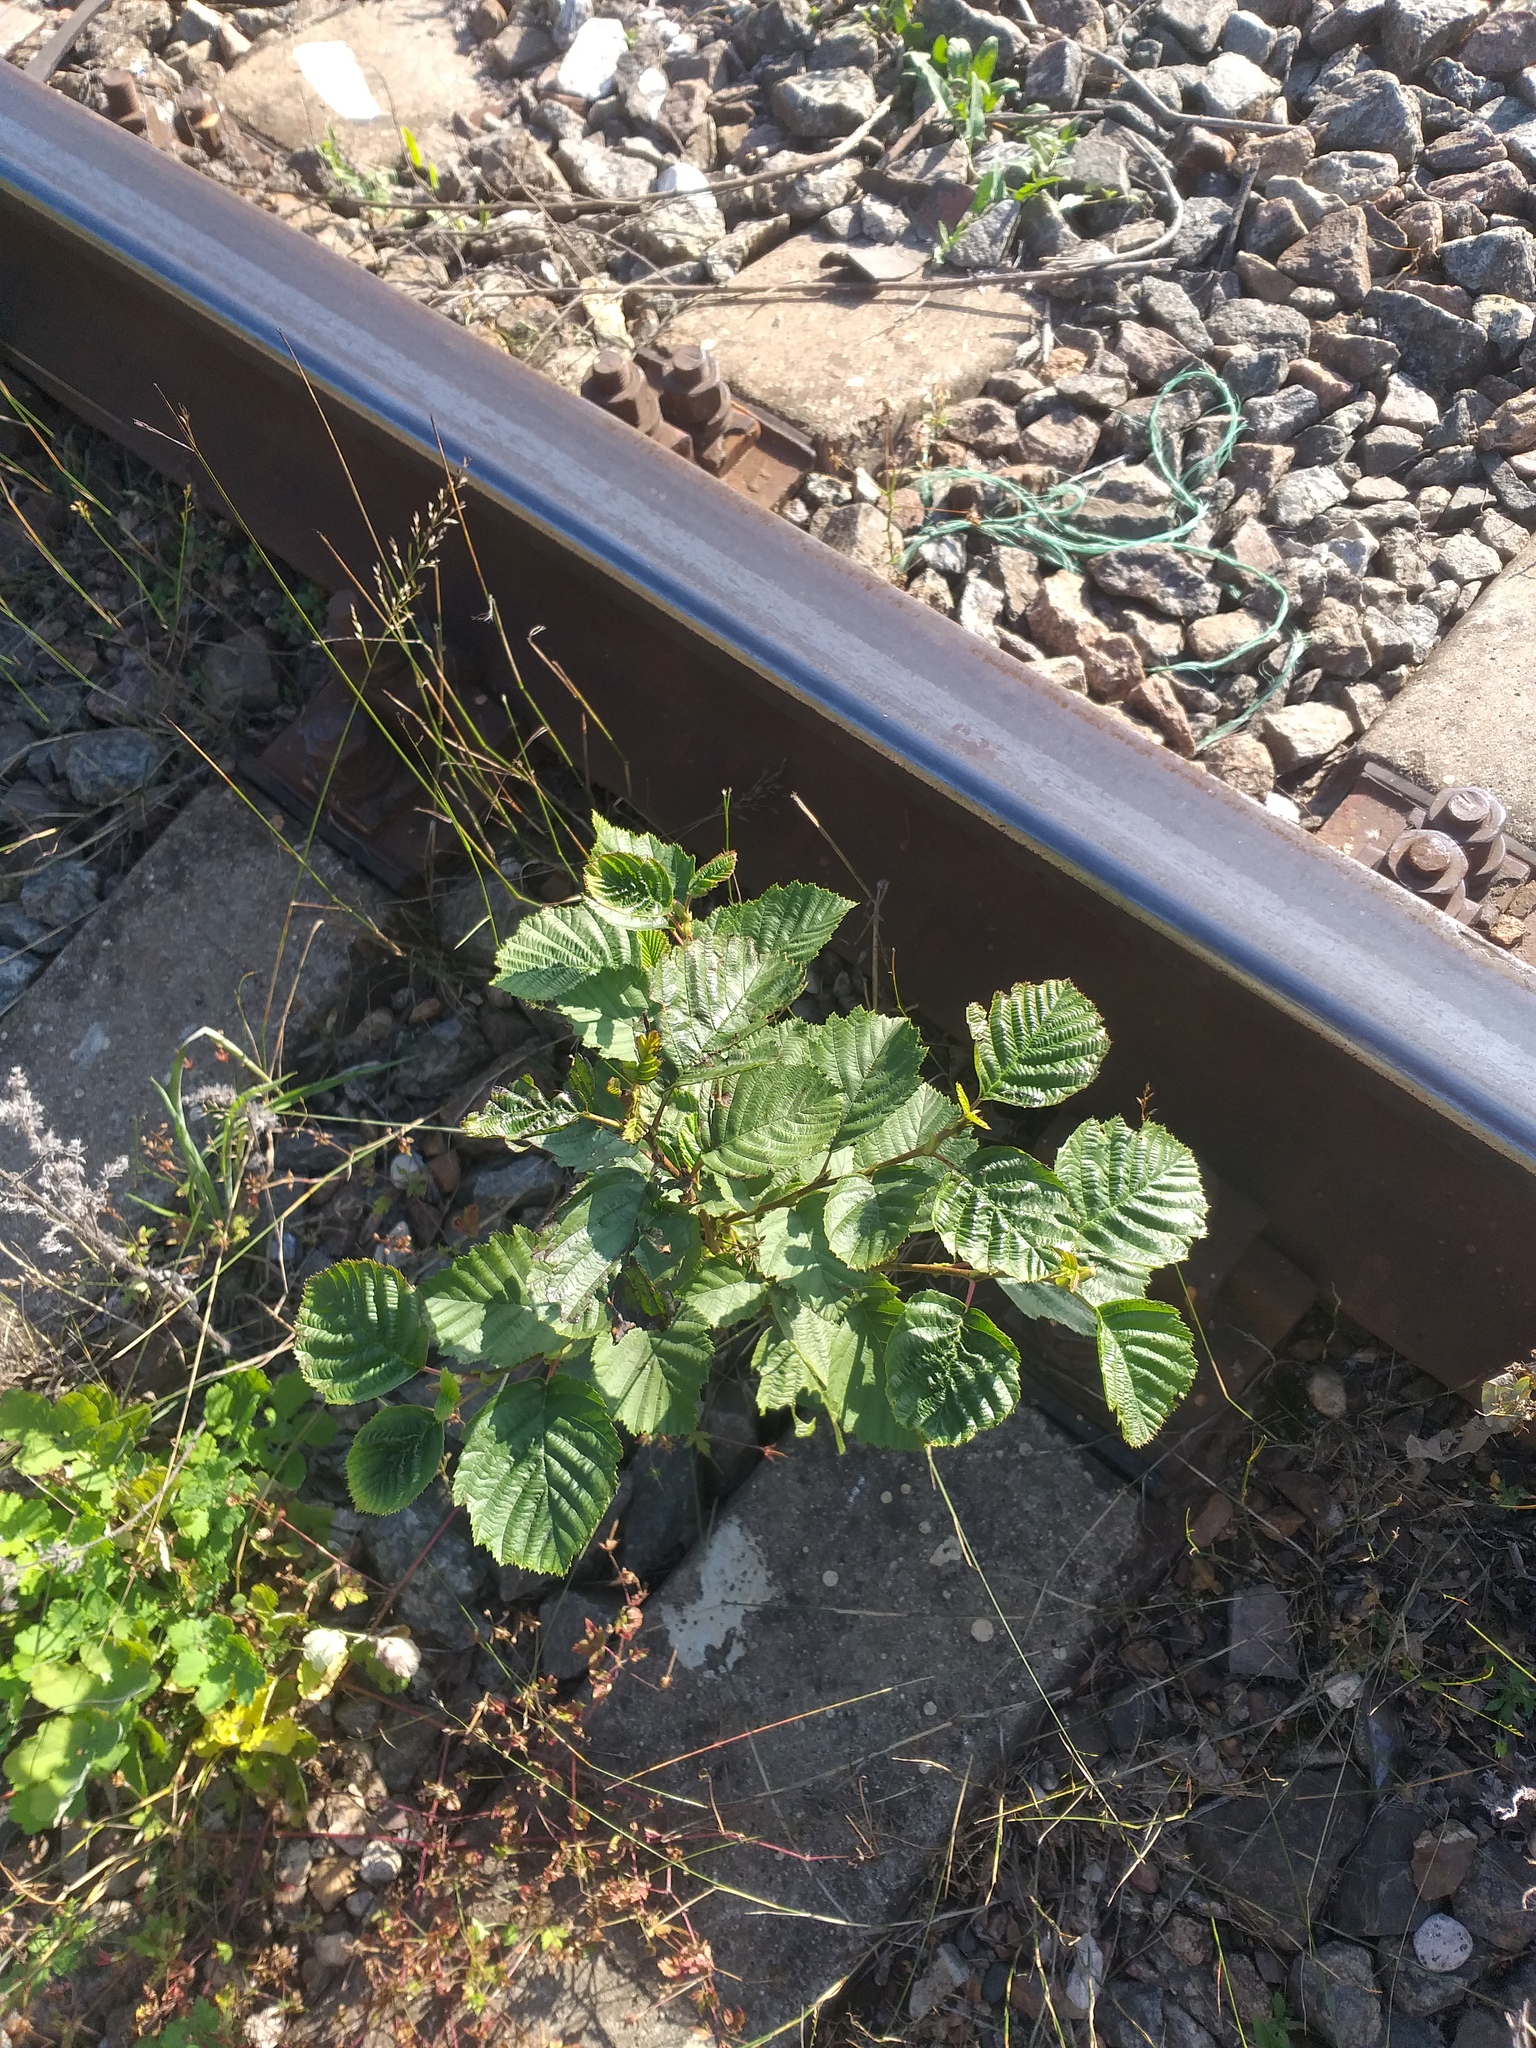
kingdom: Plantae
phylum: Tracheophyta
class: Magnoliopsida
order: Fagales
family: Betulaceae
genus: Alnus
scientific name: Alnus incana
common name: Grey alder
